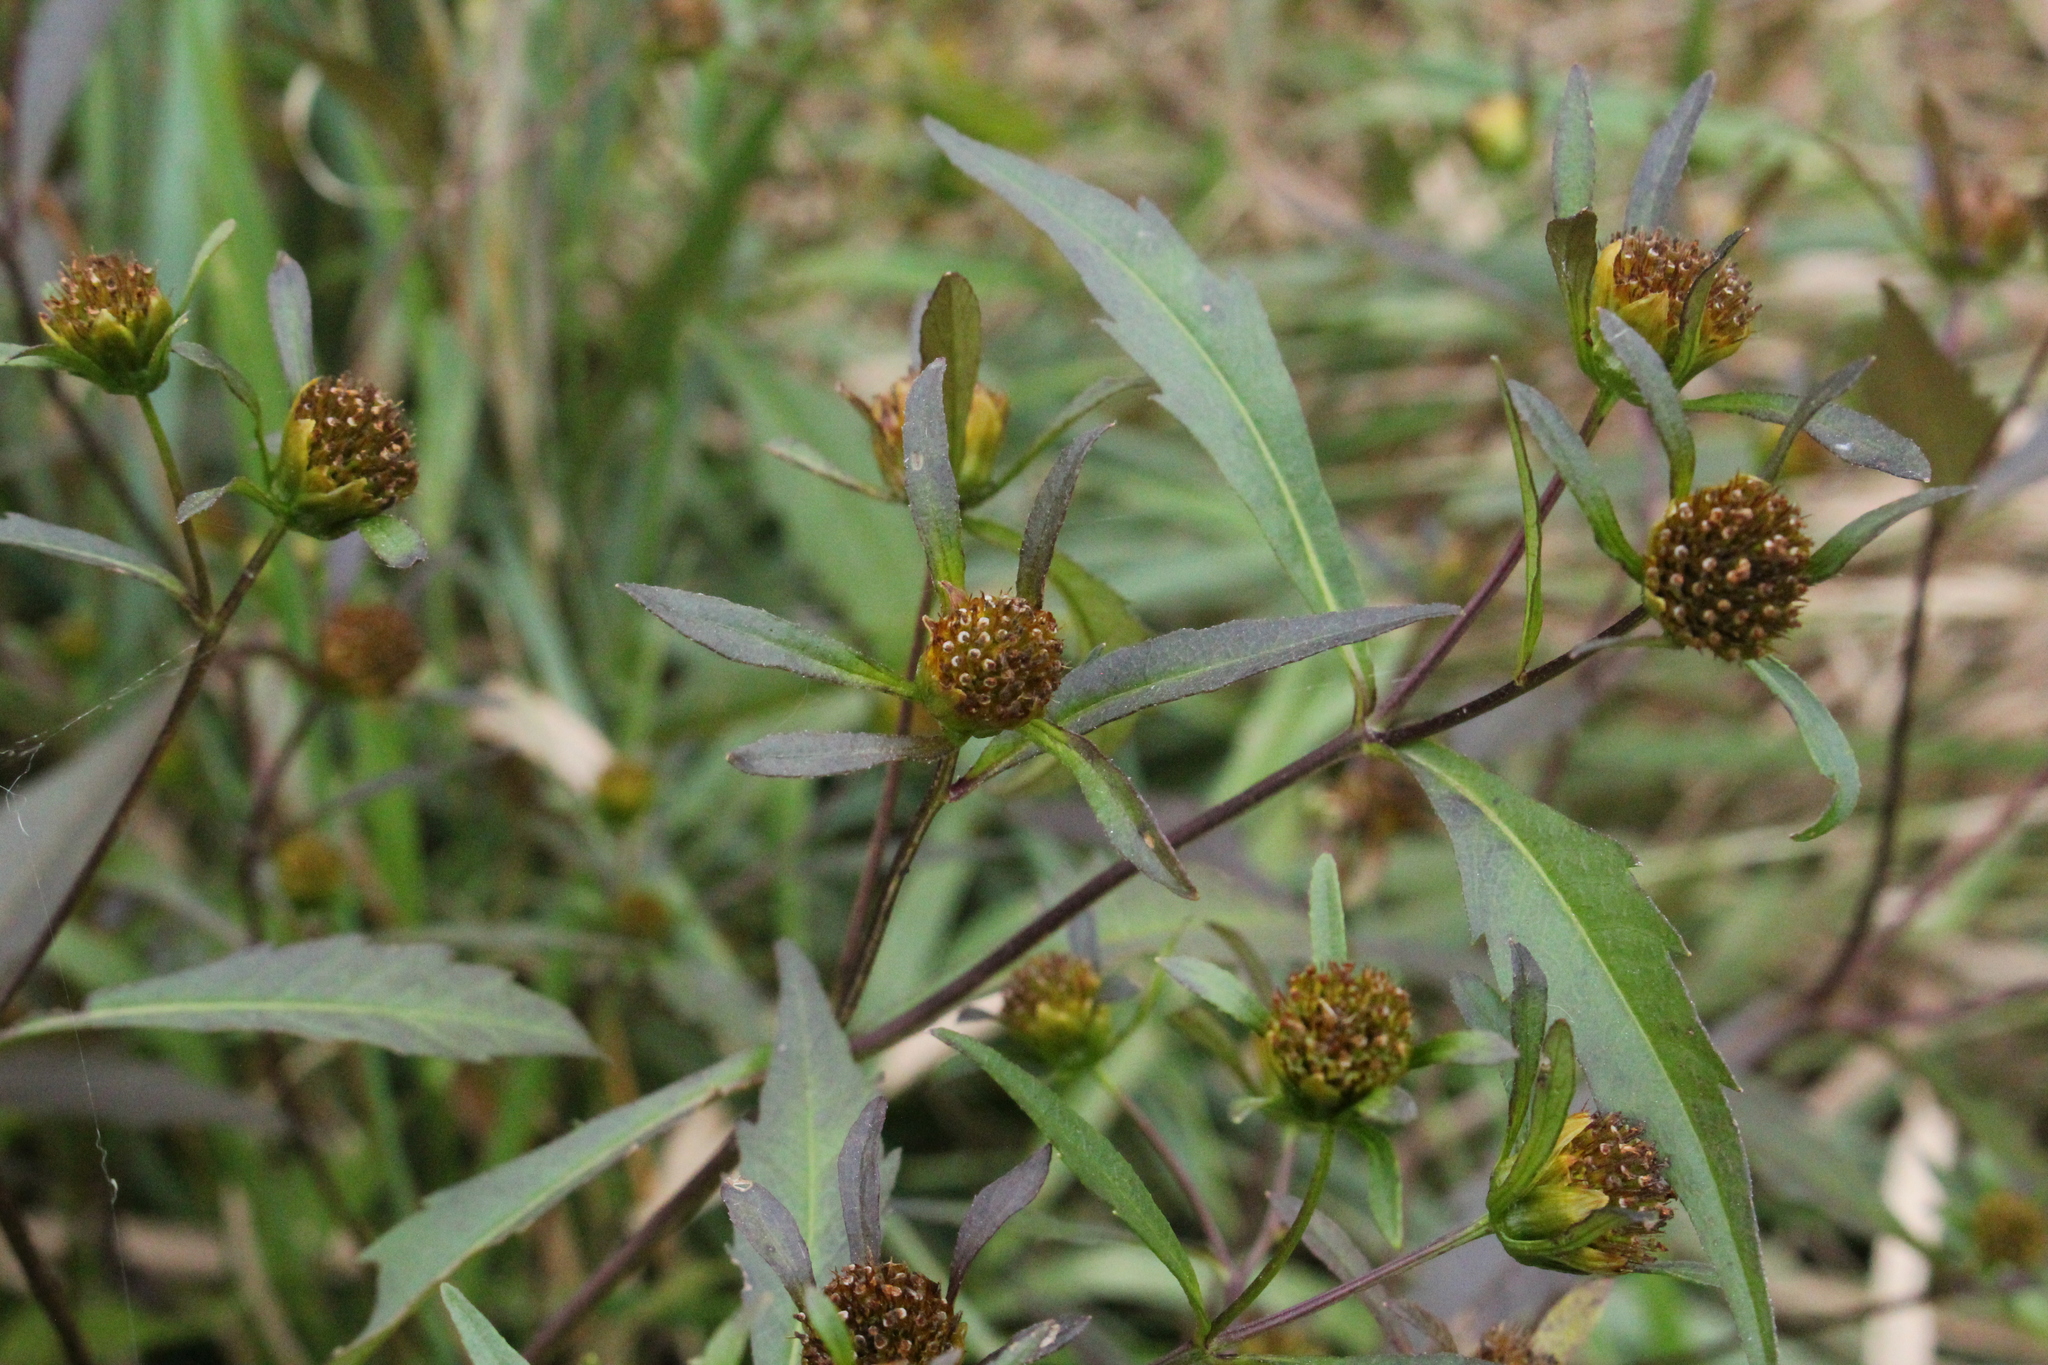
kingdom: Plantae
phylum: Tracheophyta
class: Magnoliopsida
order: Asterales
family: Asteraceae
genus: Bidens
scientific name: Bidens connata
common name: London bur-marigold
